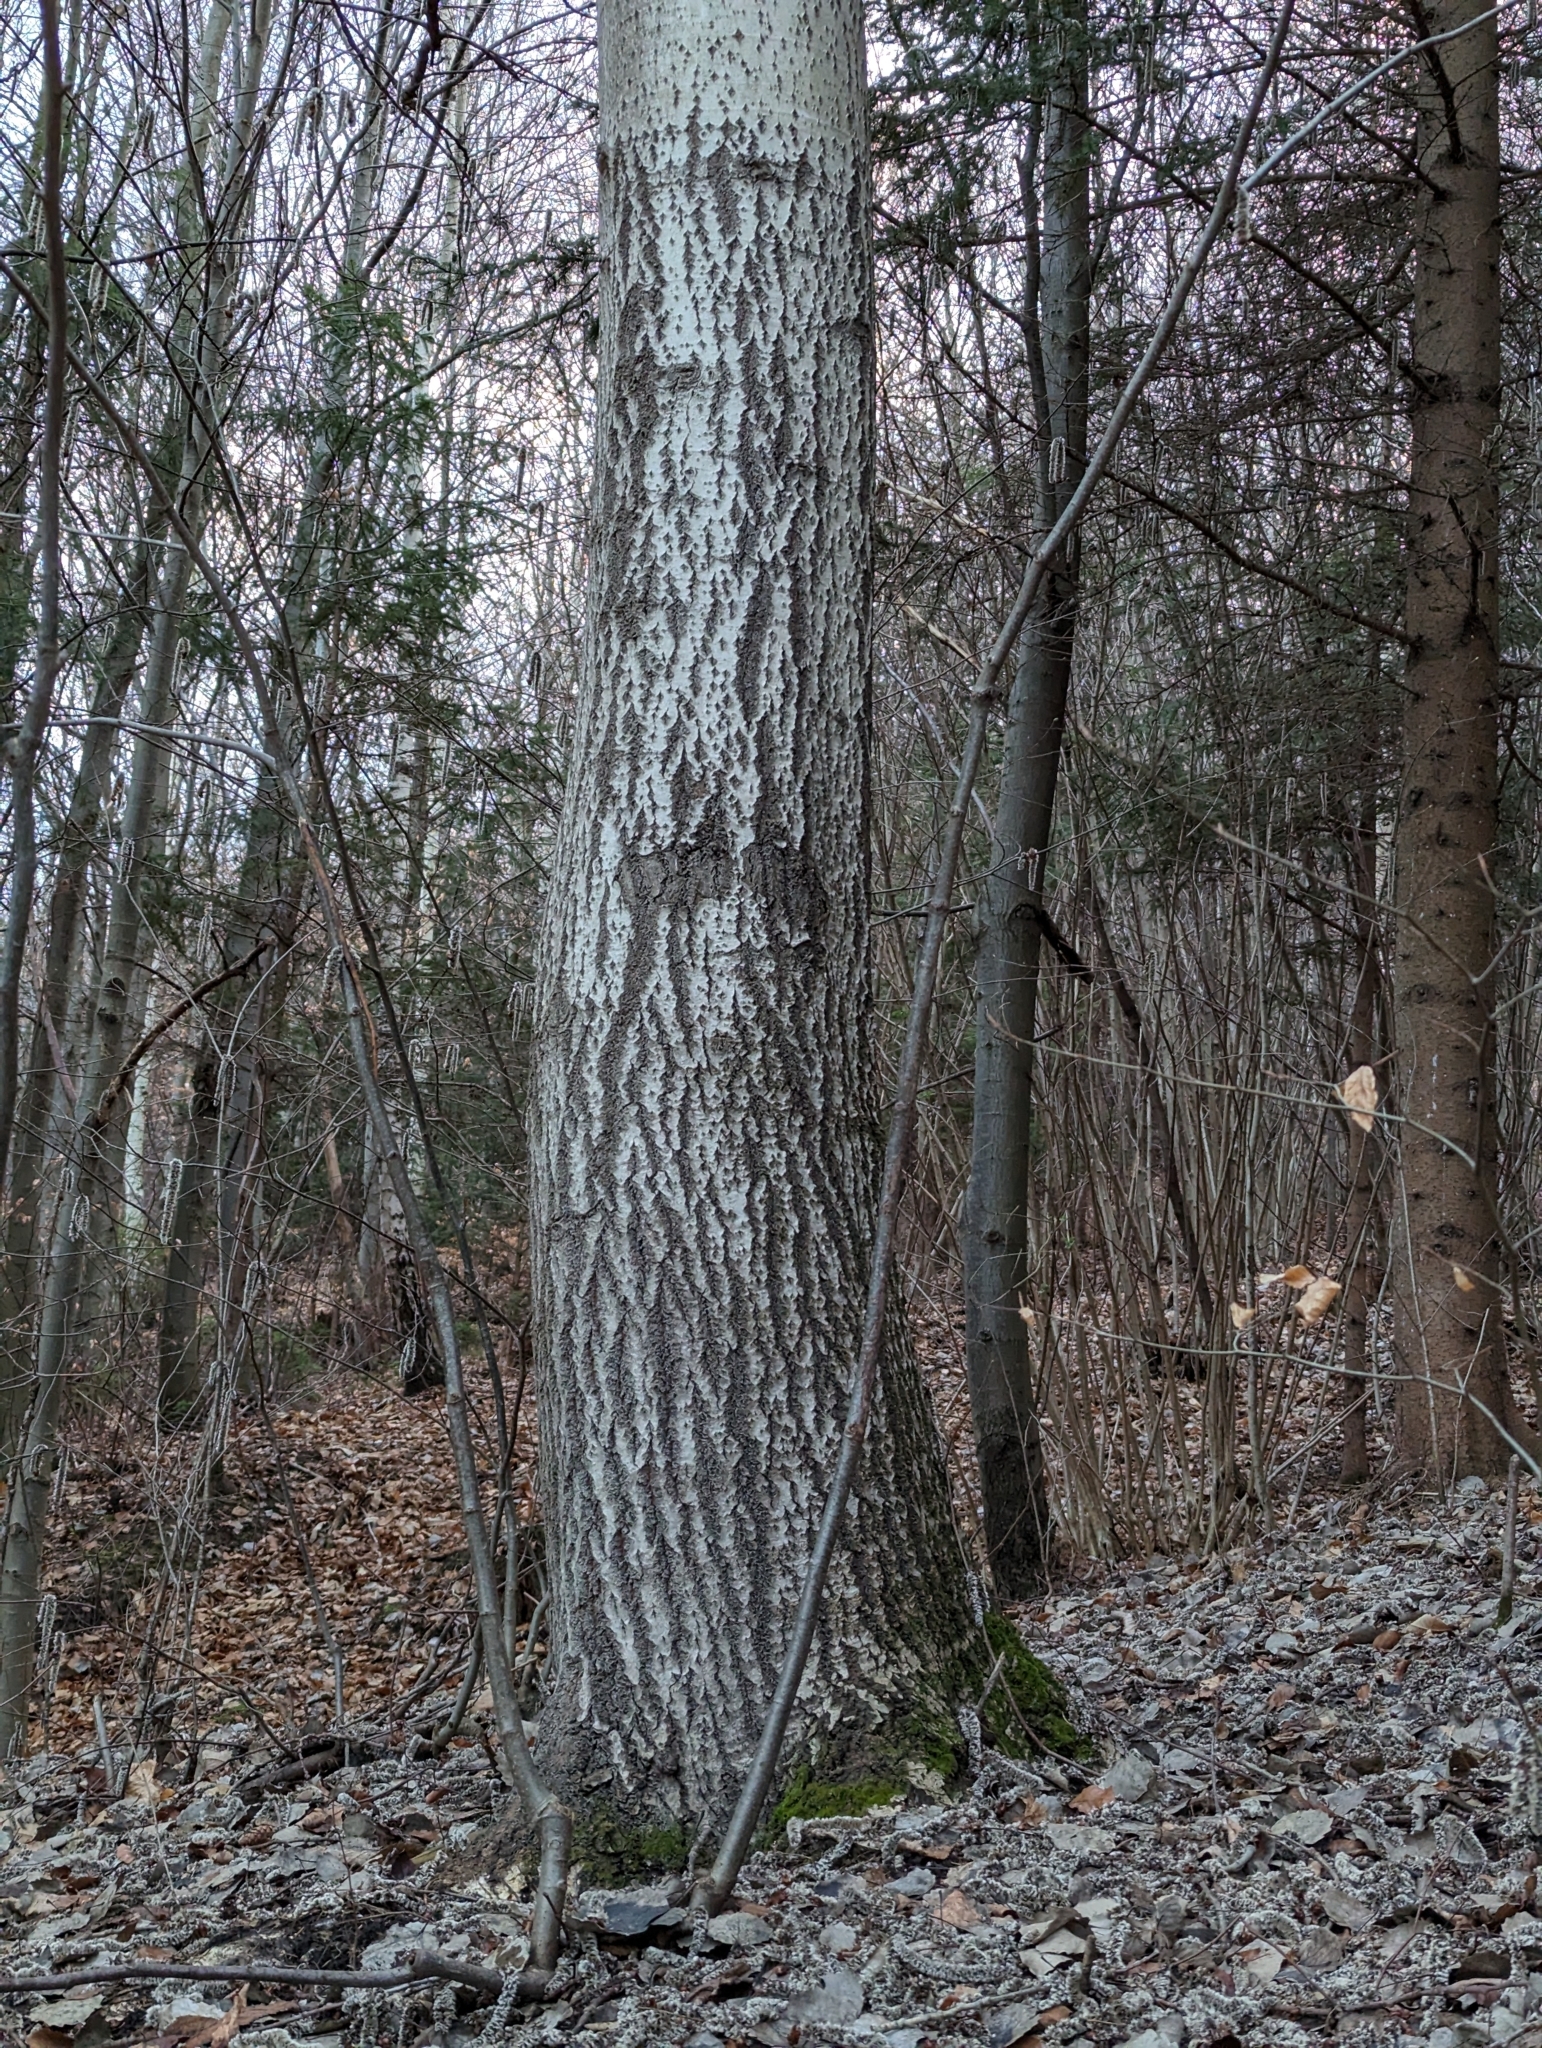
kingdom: Plantae
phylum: Tracheophyta
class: Magnoliopsida
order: Malpighiales
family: Salicaceae
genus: Populus
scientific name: Populus tremula
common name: European aspen
